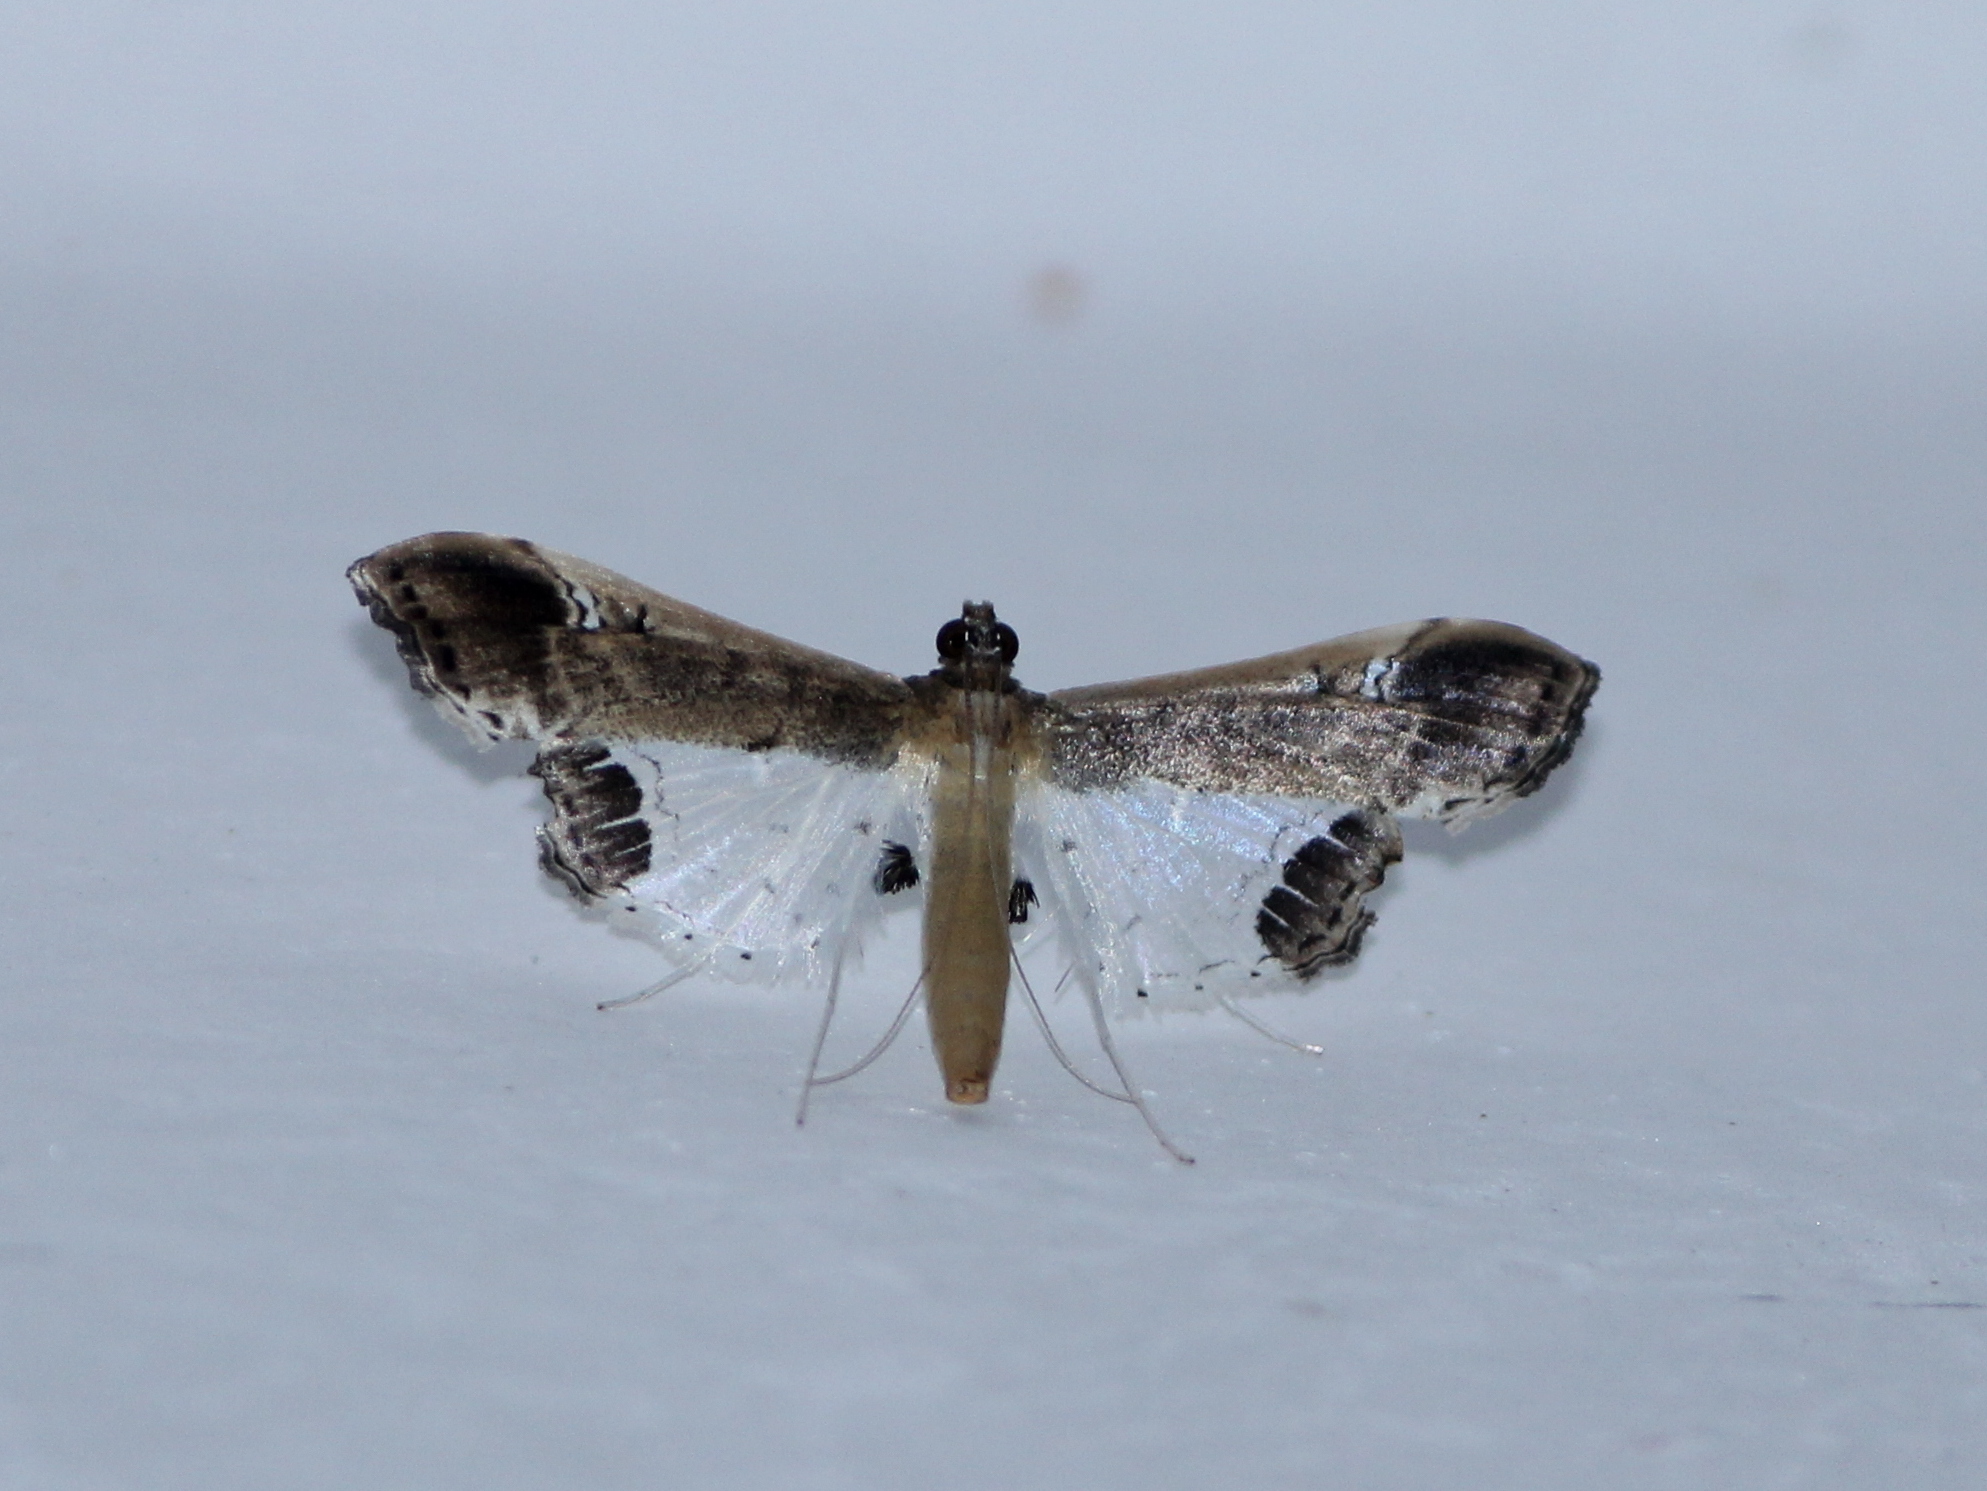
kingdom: Animalia
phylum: Arthropoda
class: Insecta
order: Lepidoptera
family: Crambidae
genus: Maruca
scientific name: Maruca amboinalis
